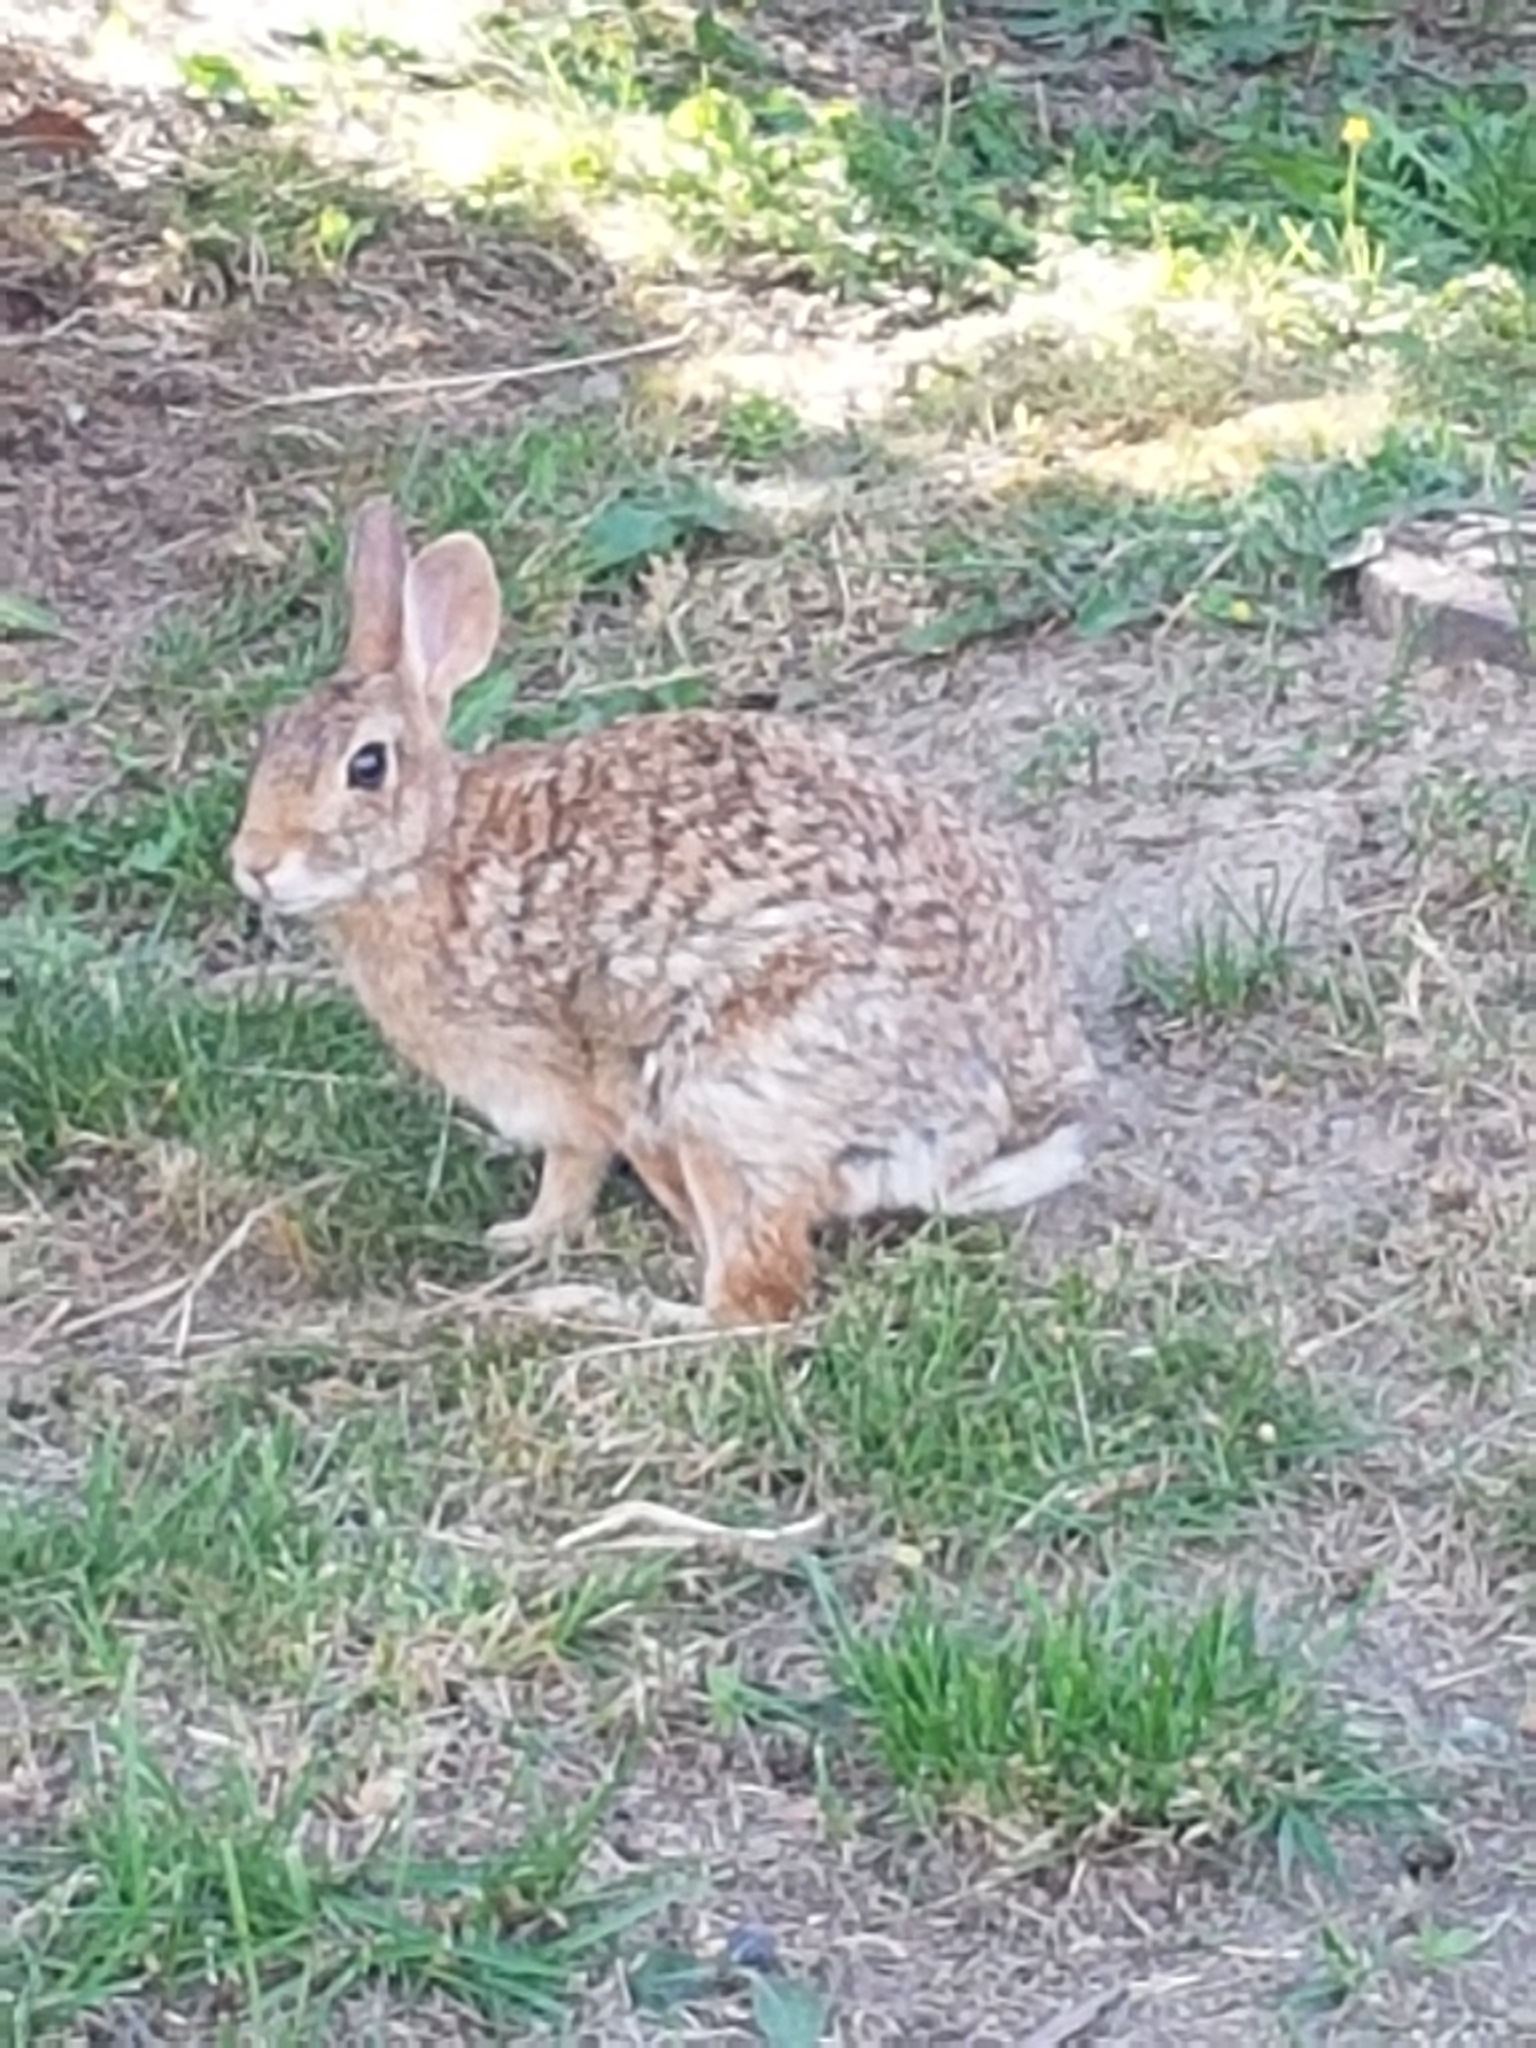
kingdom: Animalia
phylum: Chordata
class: Mammalia
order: Lagomorpha
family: Leporidae
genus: Sylvilagus
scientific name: Sylvilagus floridanus
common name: Eastern cottontail
